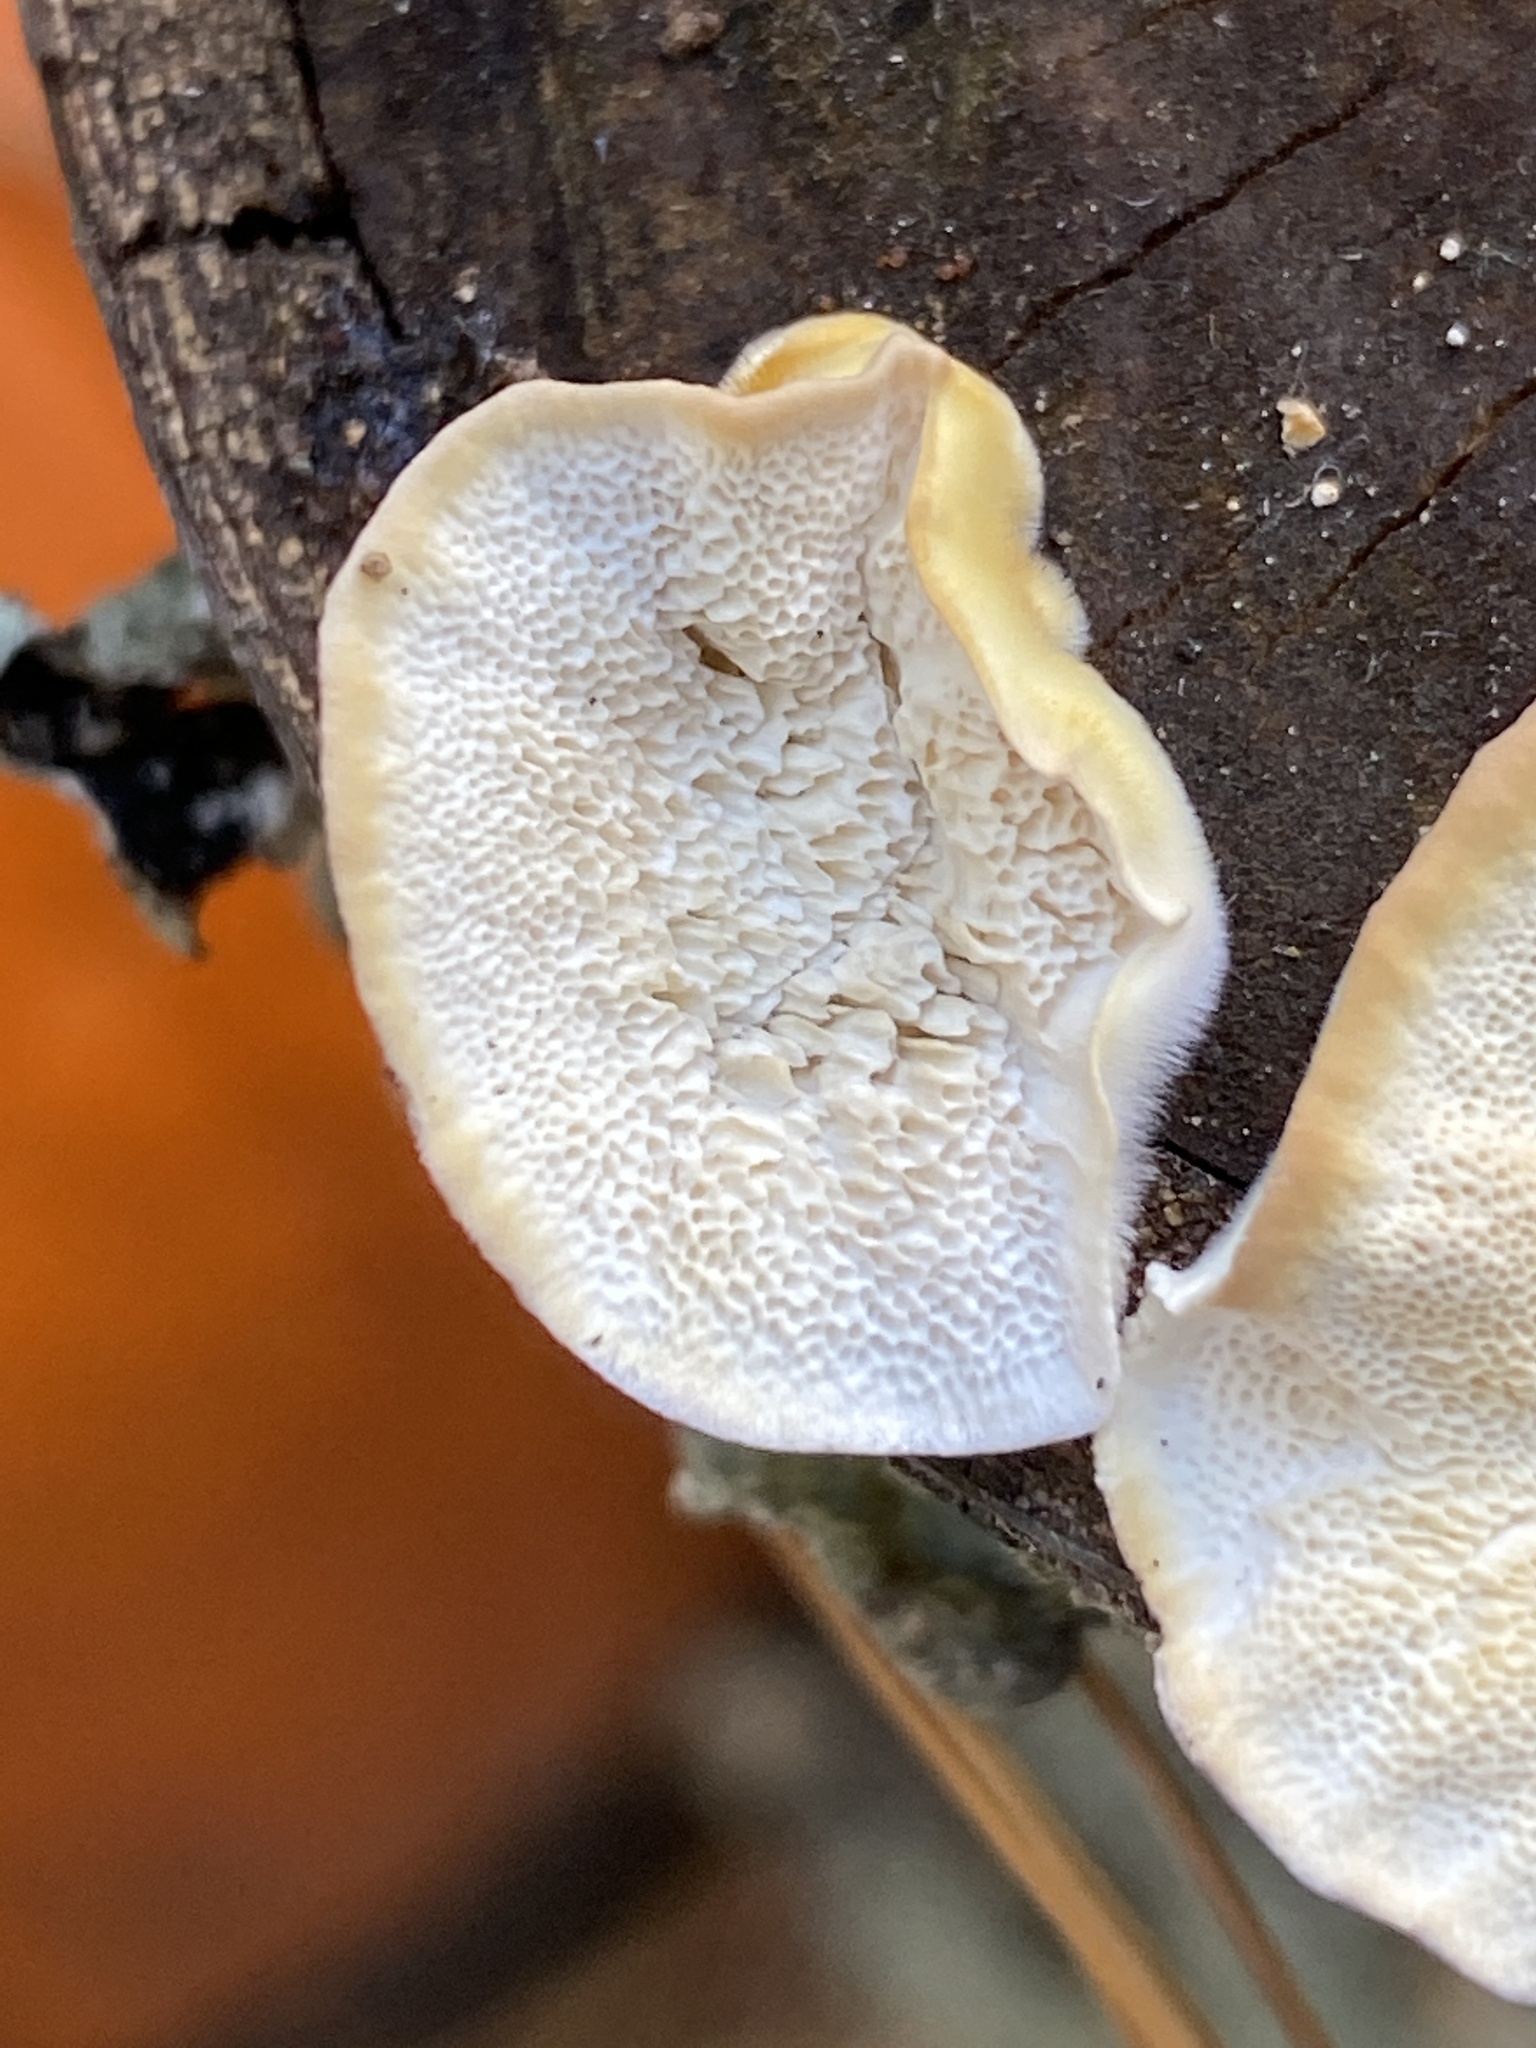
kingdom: Fungi
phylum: Basidiomycota
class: Agaricomycetes
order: Polyporales
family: Polyporaceae
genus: Trametes
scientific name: Trametes versicolor
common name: Turkeytail
